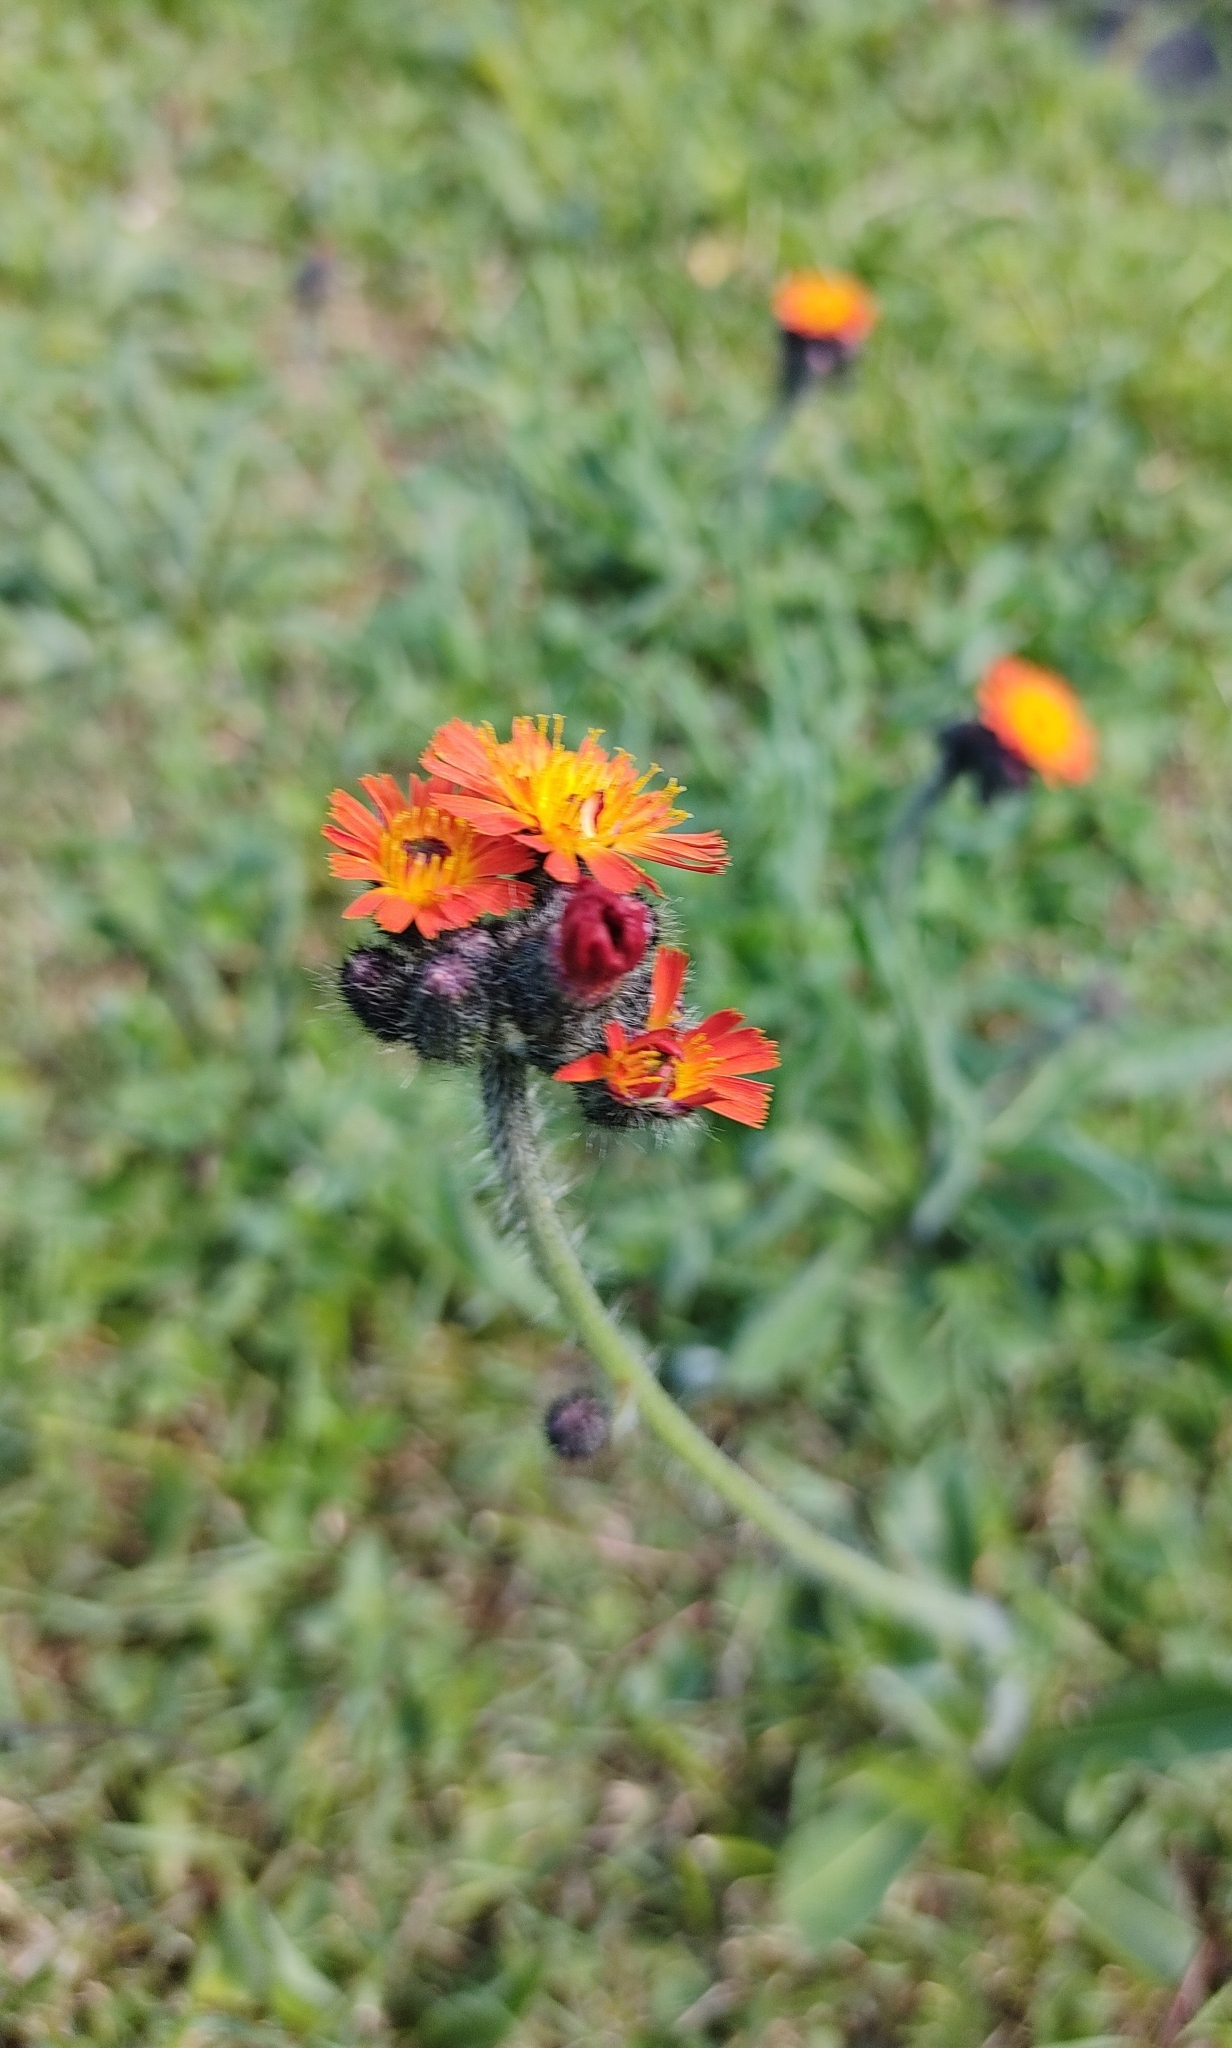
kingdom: Plantae
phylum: Tracheophyta
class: Magnoliopsida
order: Asterales
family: Asteraceae
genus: Pilosella
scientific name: Pilosella aurantiaca
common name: Fox-and-cubs
